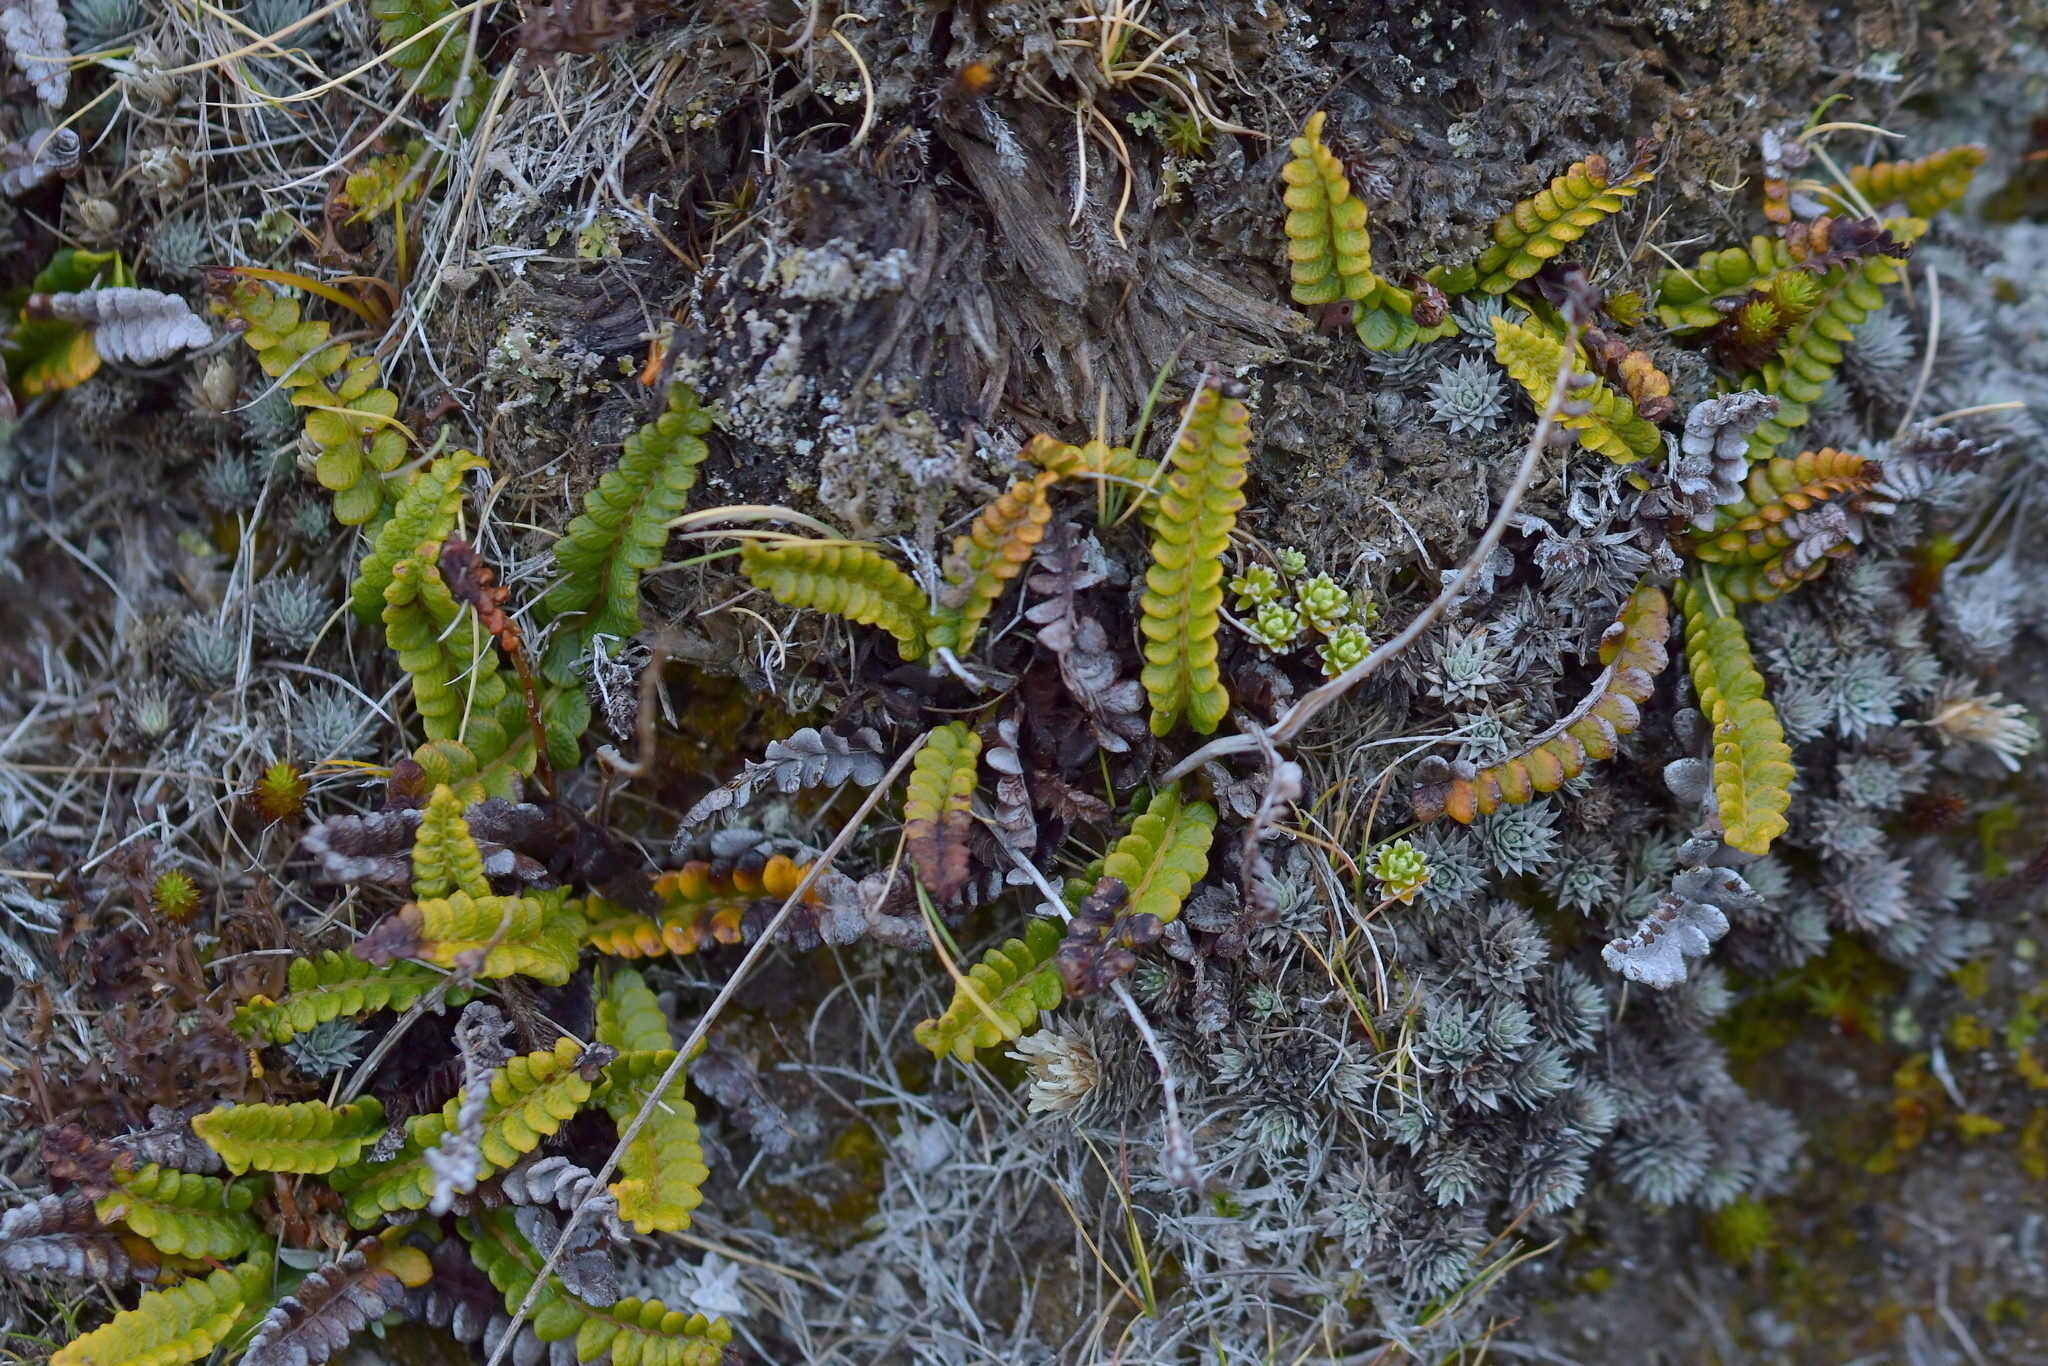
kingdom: Plantae
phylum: Tracheophyta
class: Polypodiopsida
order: Polypodiales
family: Blechnaceae
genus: Austroblechnum
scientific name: Austroblechnum penna-marina
